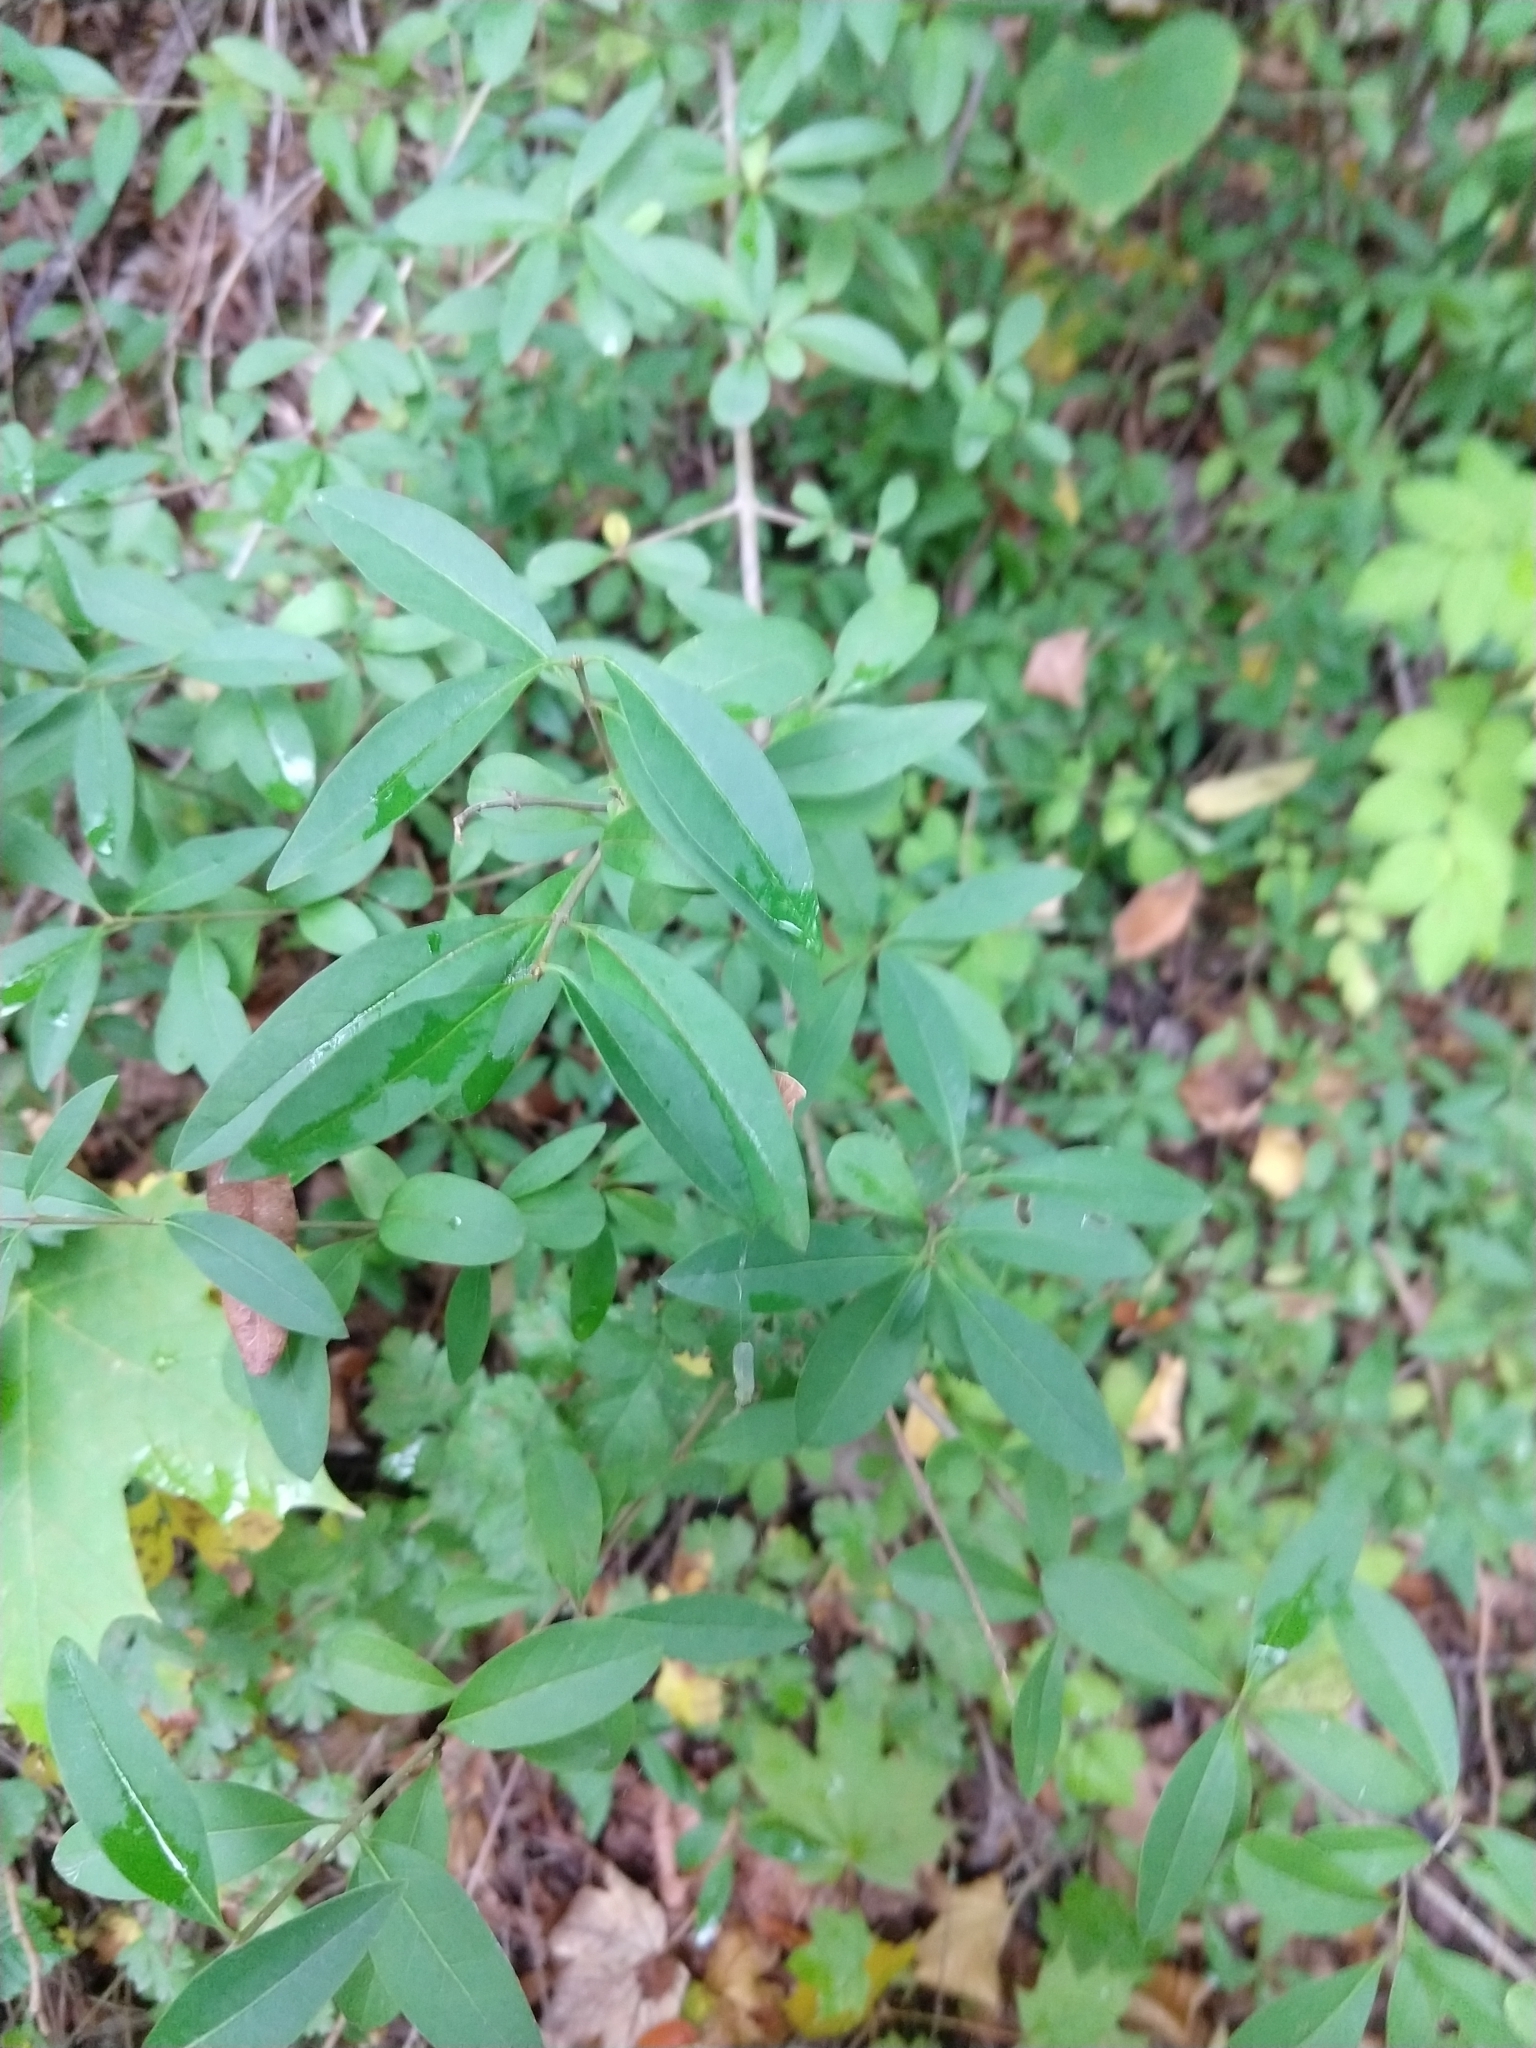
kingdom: Plantae
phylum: Tracheophyta
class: Magnoliopsida
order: Lamiales
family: Oleaceae
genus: Ligustrum
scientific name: Ligustrum vulgare
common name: Wild privet
